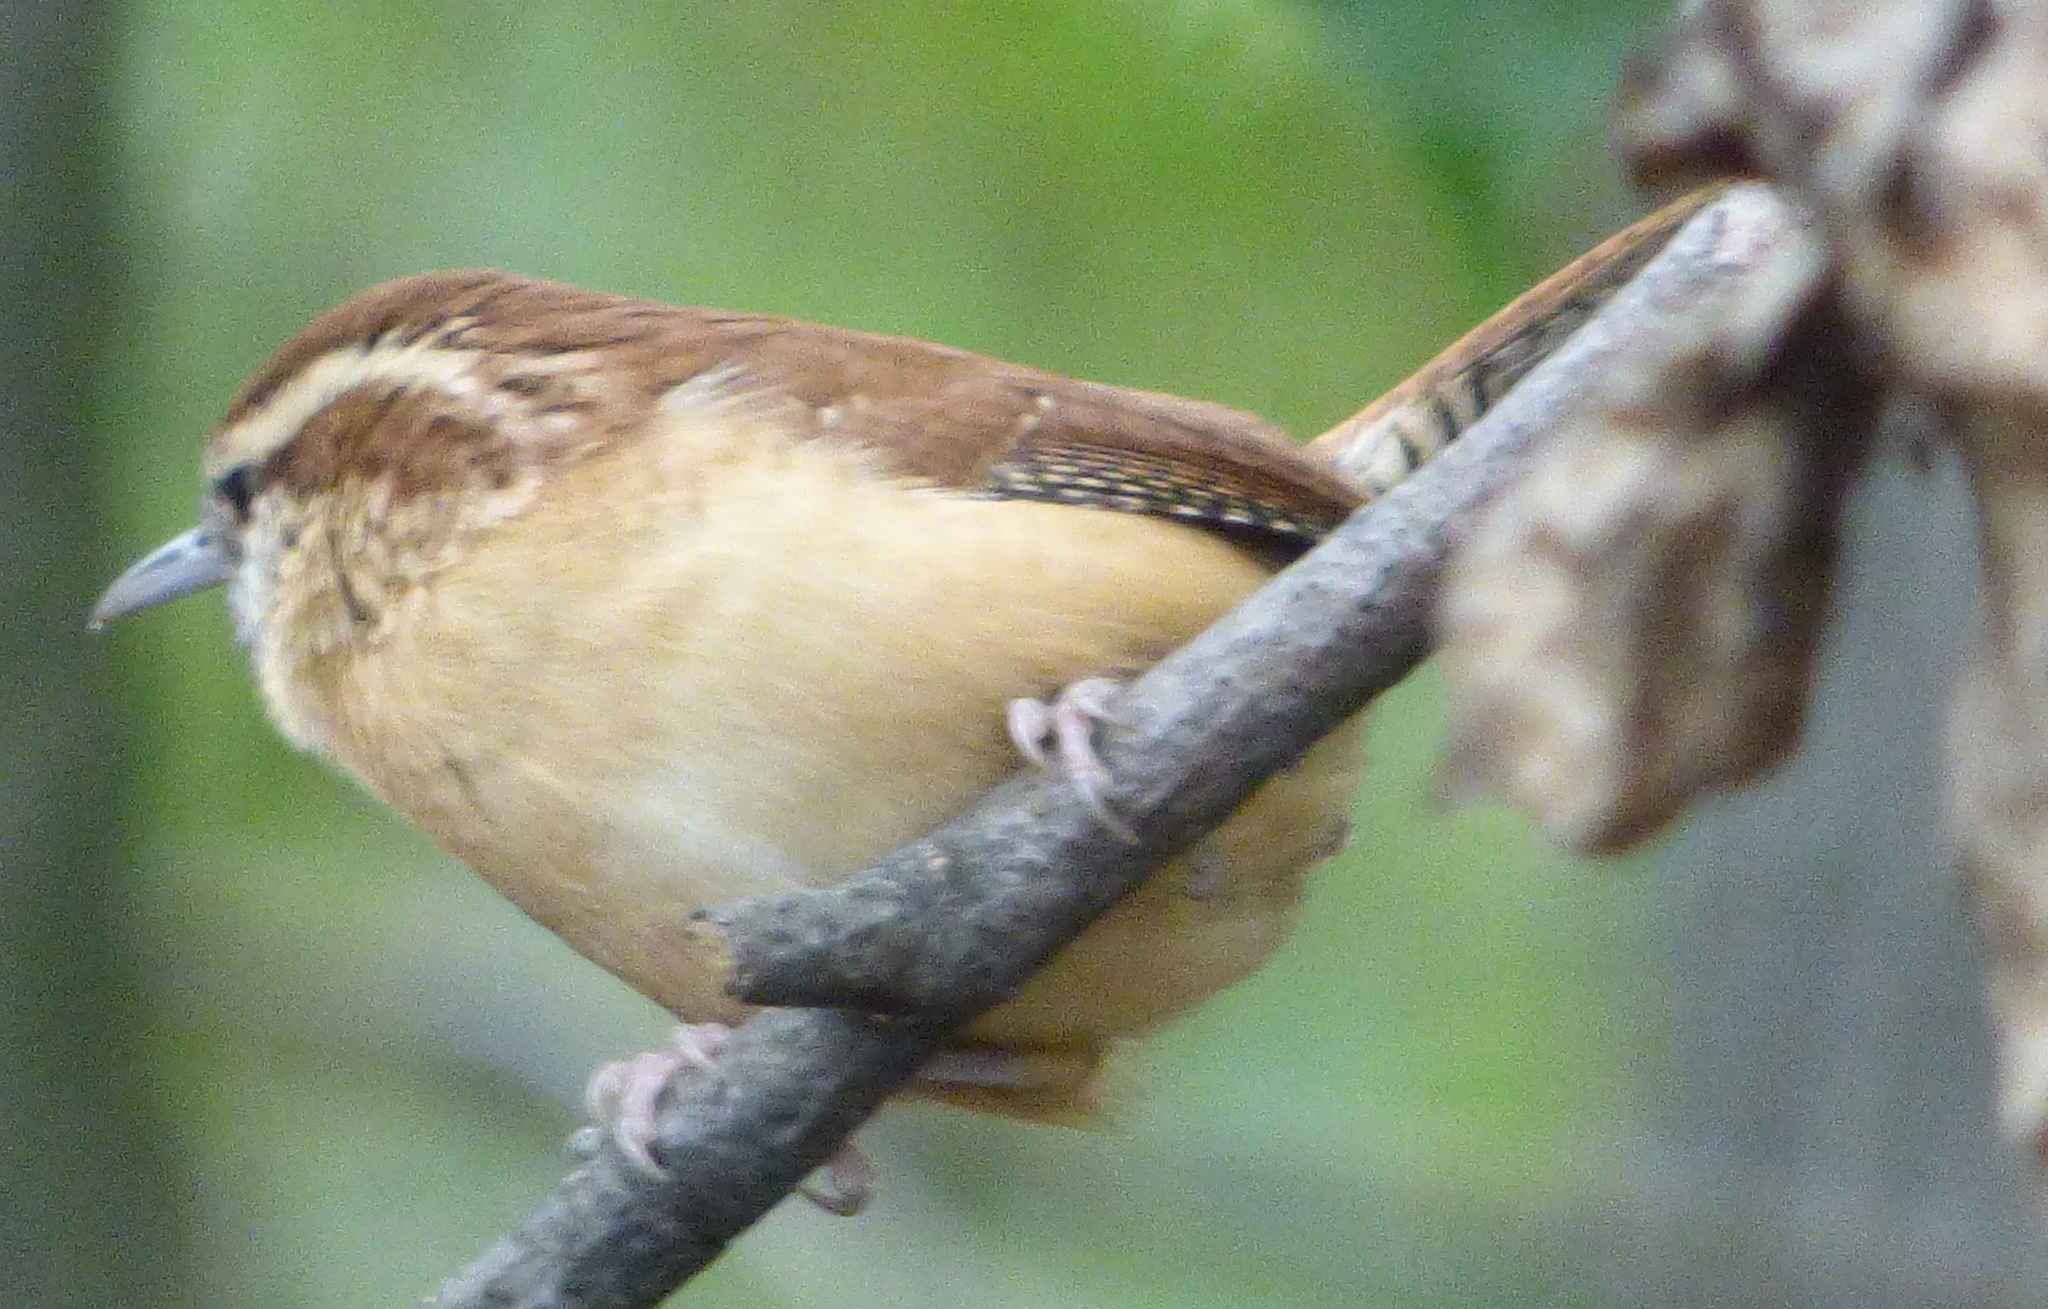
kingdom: Animalia
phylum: Chordata
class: Aves
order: Passeriformes
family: Troglodytidae
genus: Thryothorus
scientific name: Thryothorus ludovicianus
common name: Carolina wren
